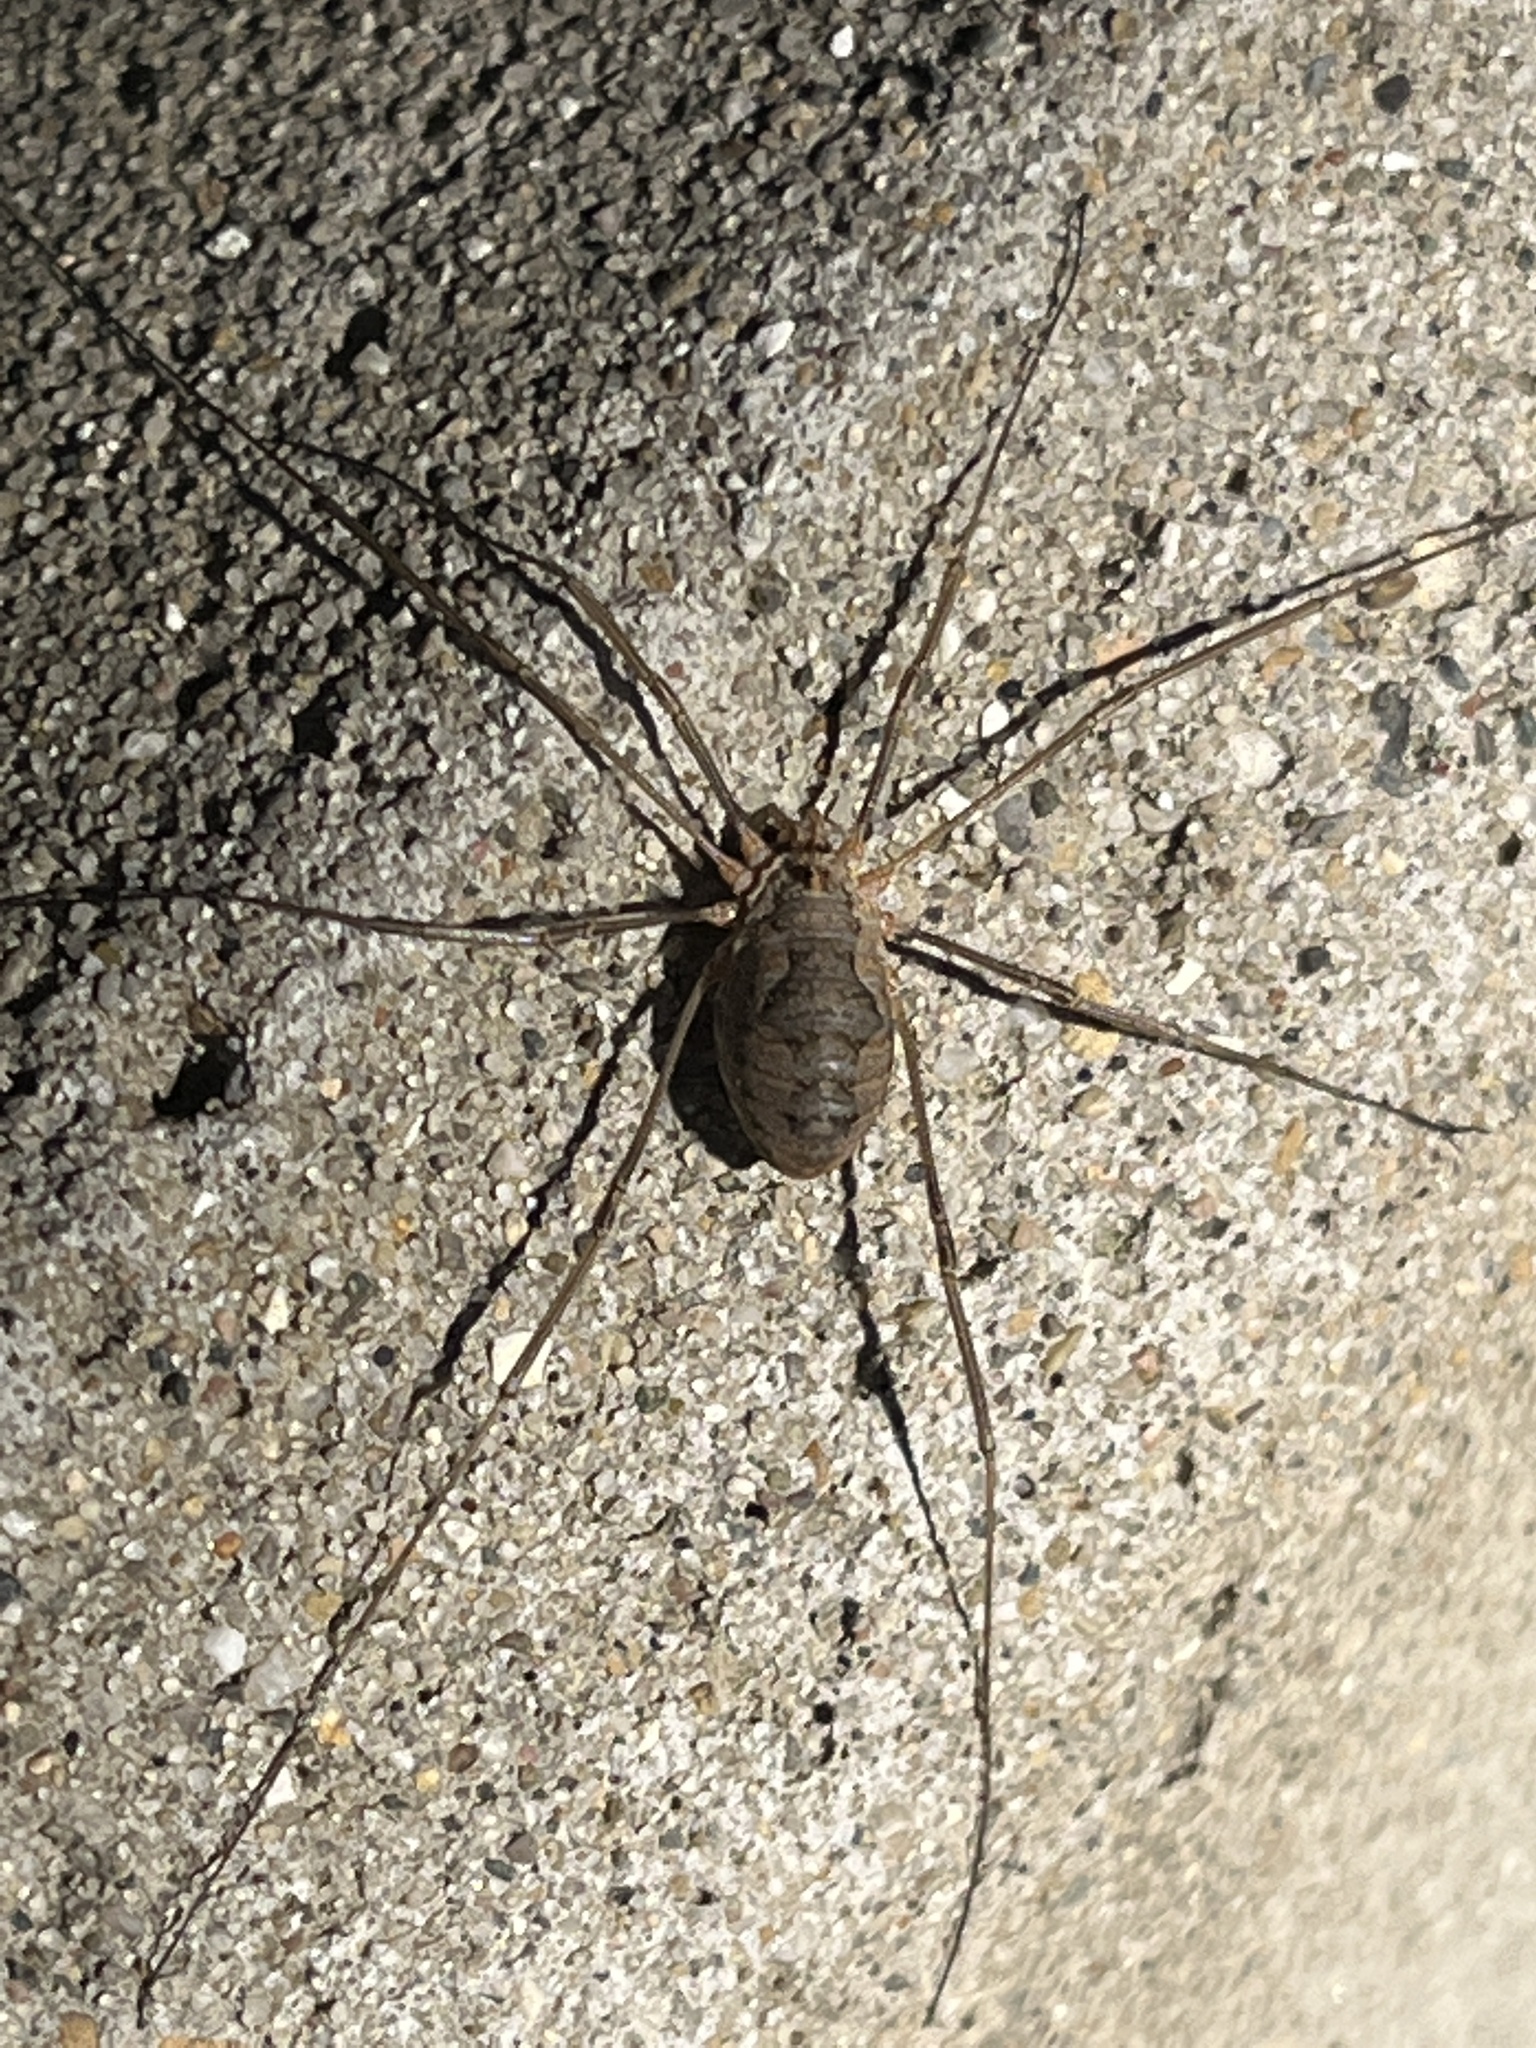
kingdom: Animalia
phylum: Arthropoda
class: Arachnida
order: Opiliones
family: Phalangiidae
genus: Phalangium
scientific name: Phalangium opilio
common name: Daddy longleg
